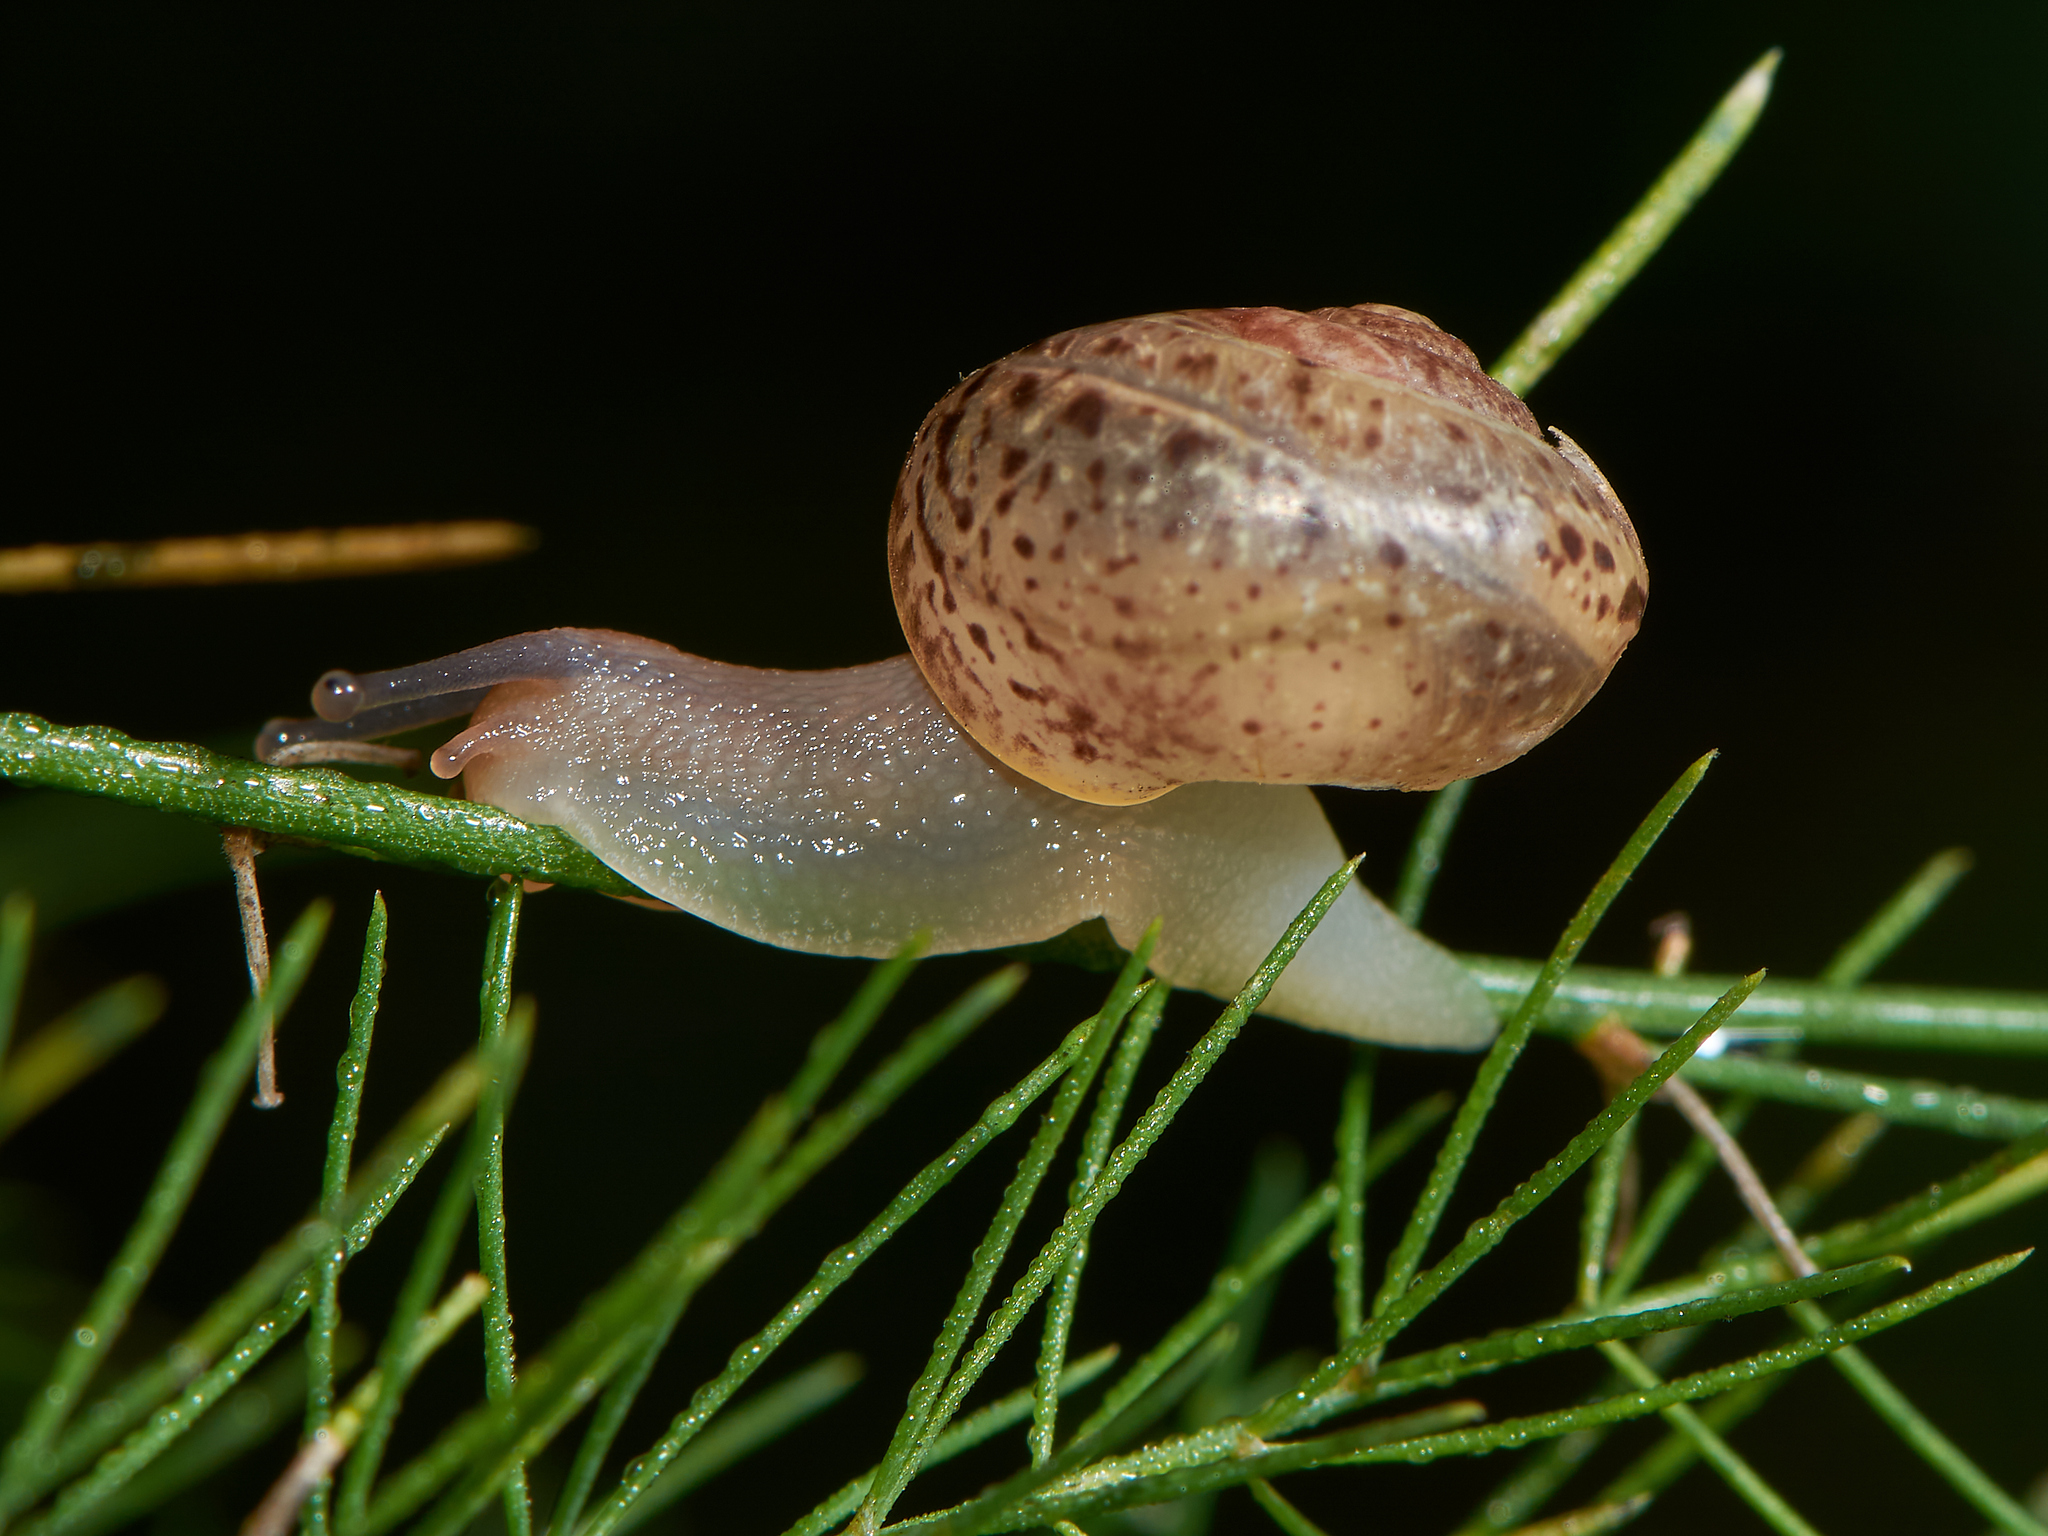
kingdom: Animalia
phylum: Mollusca
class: Gastropoda
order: Stylommatophora
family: Camaenidae
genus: Fruticicola
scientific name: Fruticicola fruticum
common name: Bush snail
